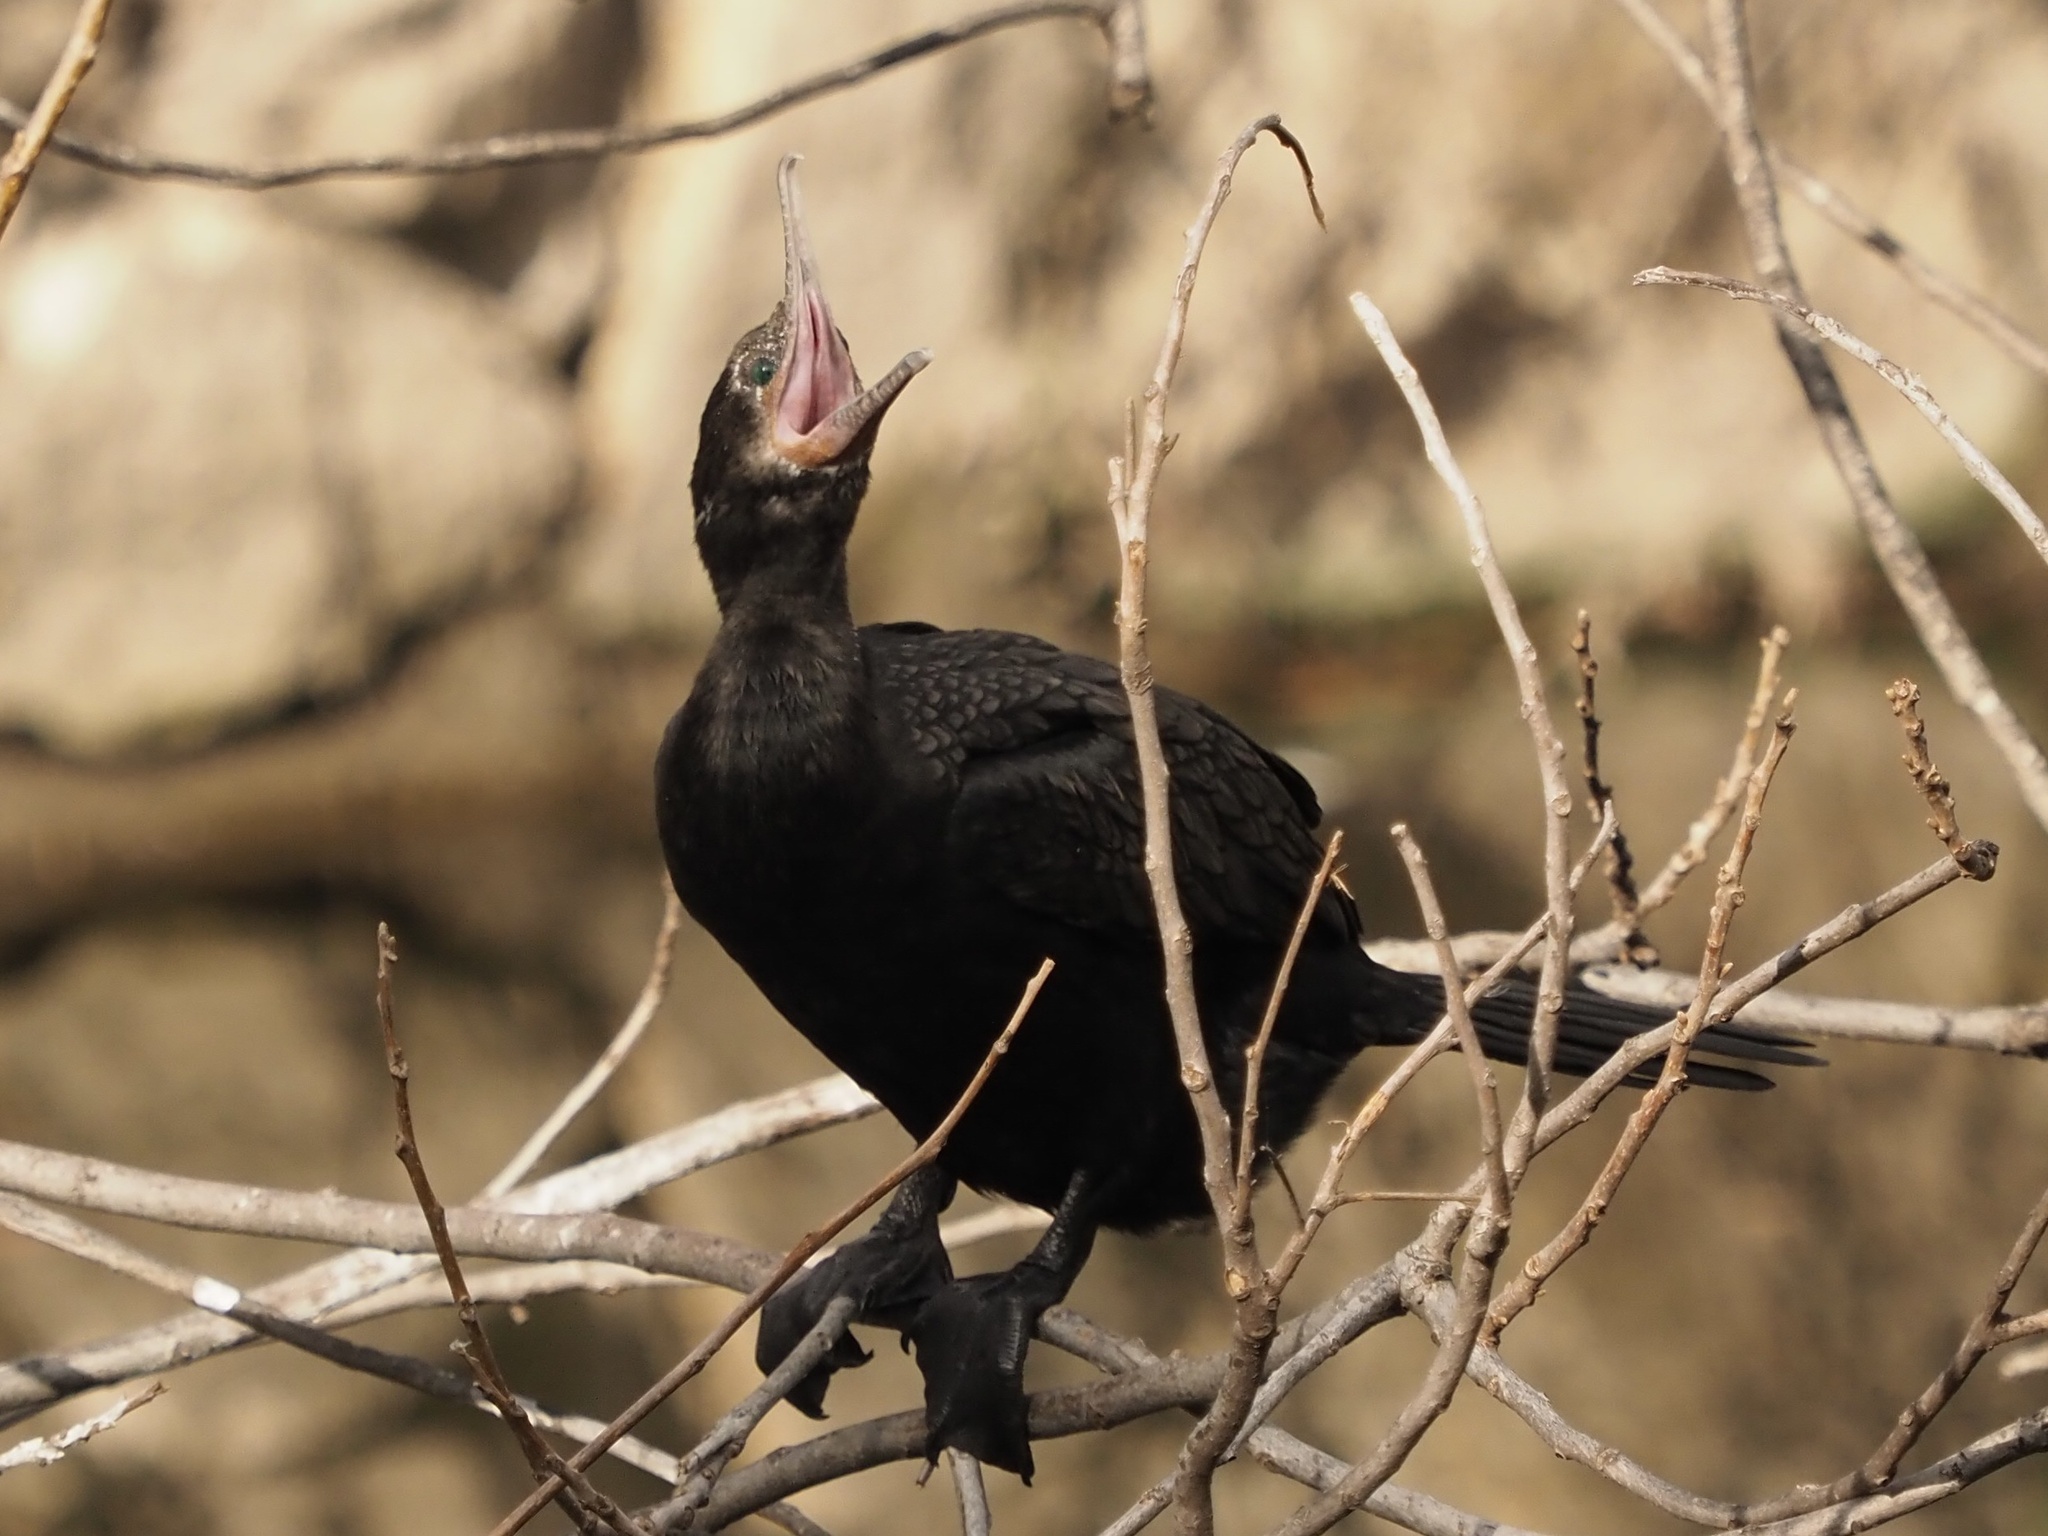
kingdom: Animalia
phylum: Chordata
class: Aves
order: Suliformes
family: Phalacrocoracidae
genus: Phalacrocorax
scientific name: Phalacrocorax brasilianus
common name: Neotropic cormorant
